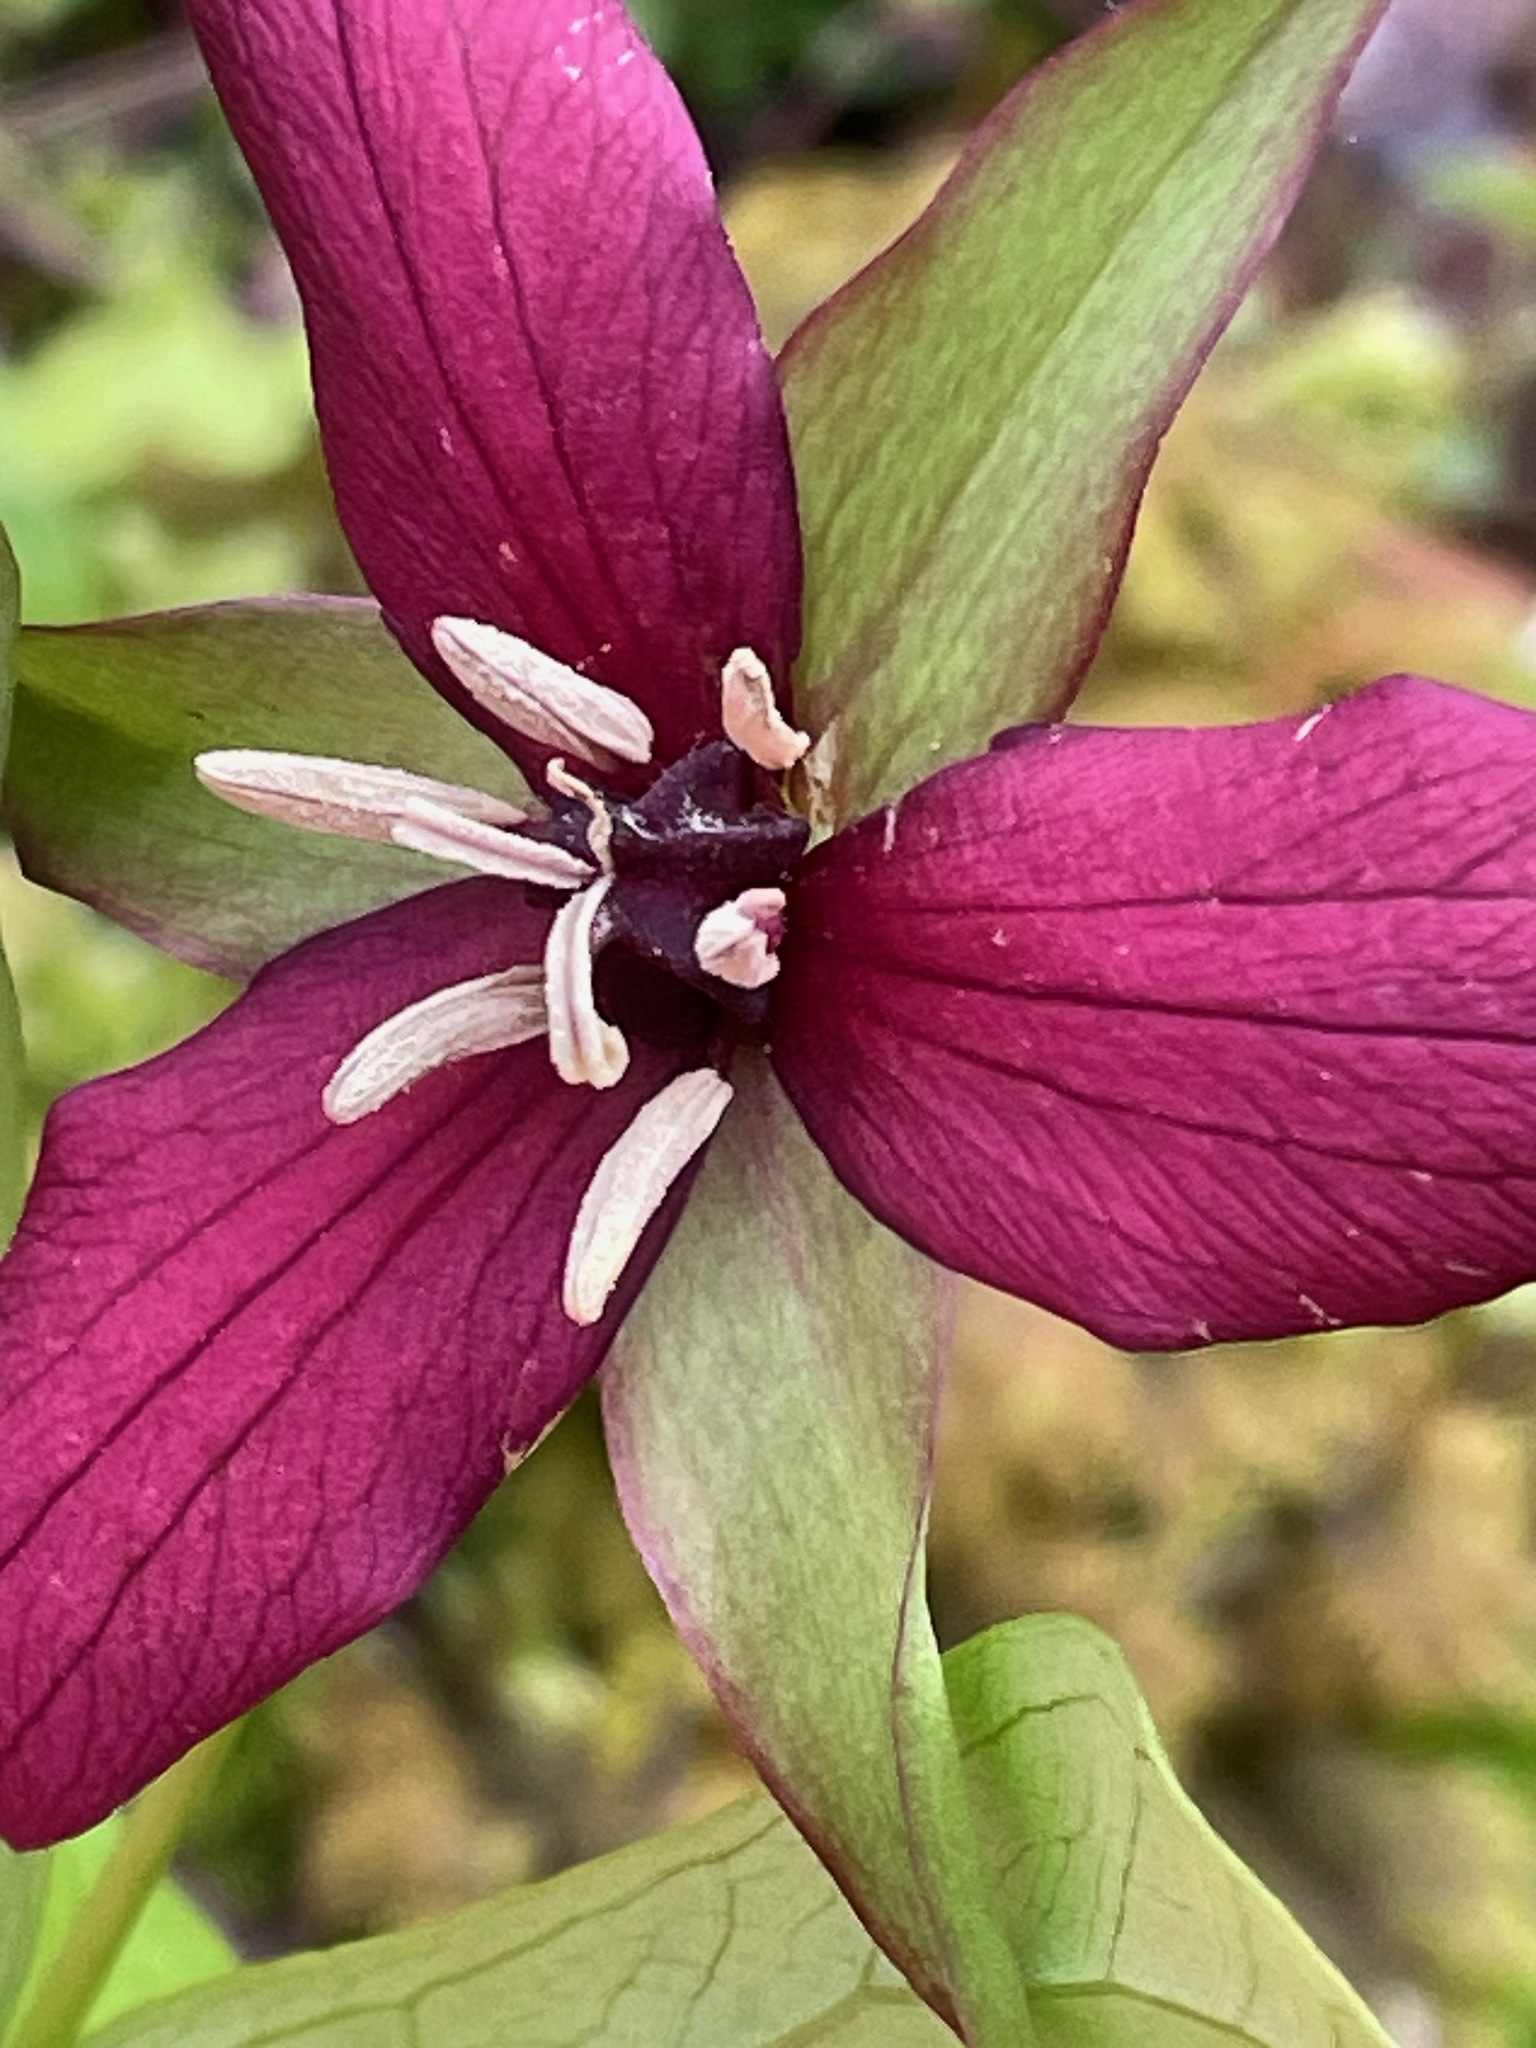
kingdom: Plantae
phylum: Tracheophyta
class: Liliopsida
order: Liliales
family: Melanthiaceae
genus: Trillium
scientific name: Trillium erectum
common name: Purple trillium
